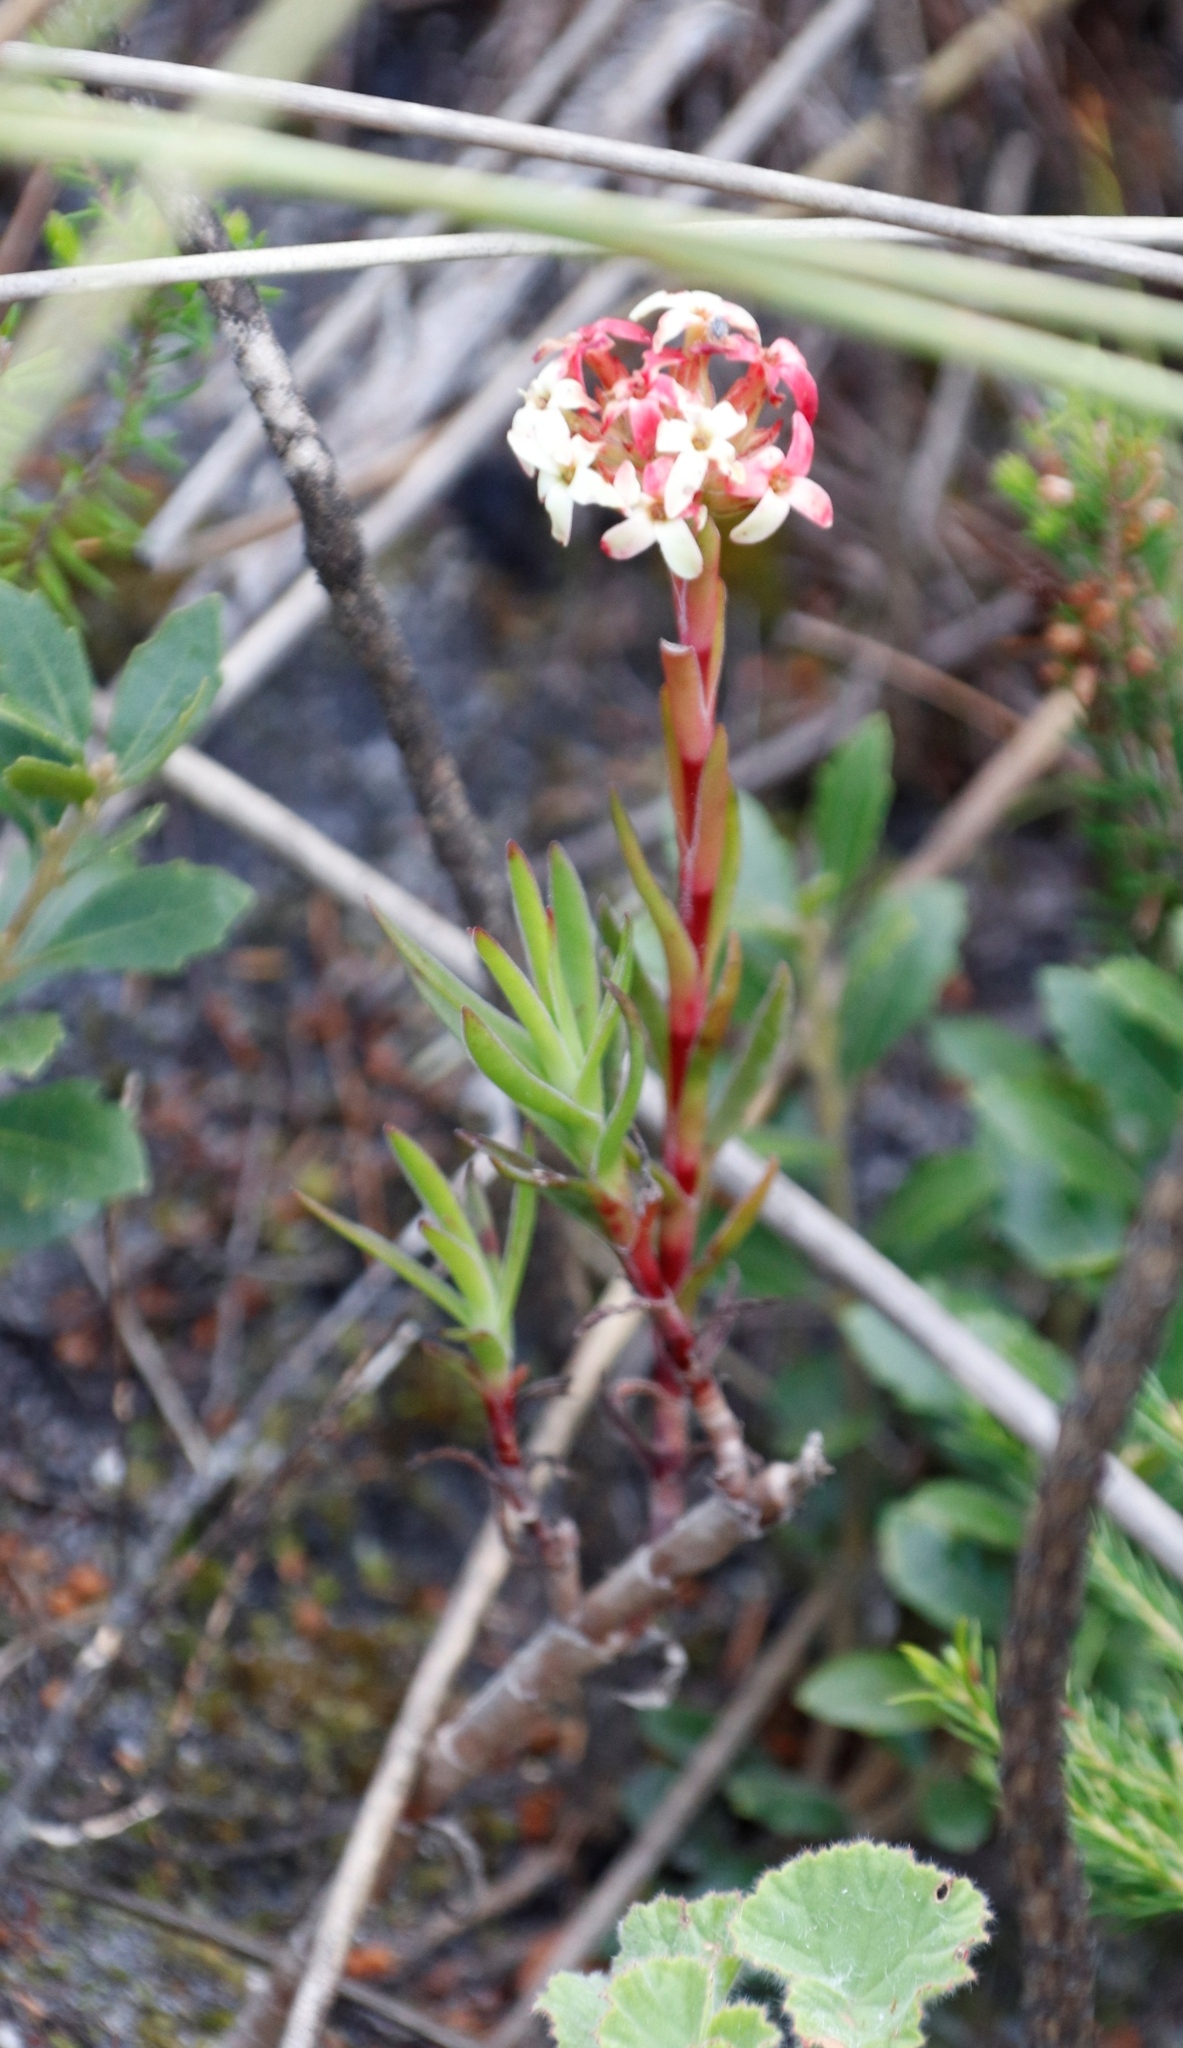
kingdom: Plantae
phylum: Tracheophyta
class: Magnoliopsida
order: Saxifragales
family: Crassulaceae
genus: Crassula
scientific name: Crassula fascicularis
